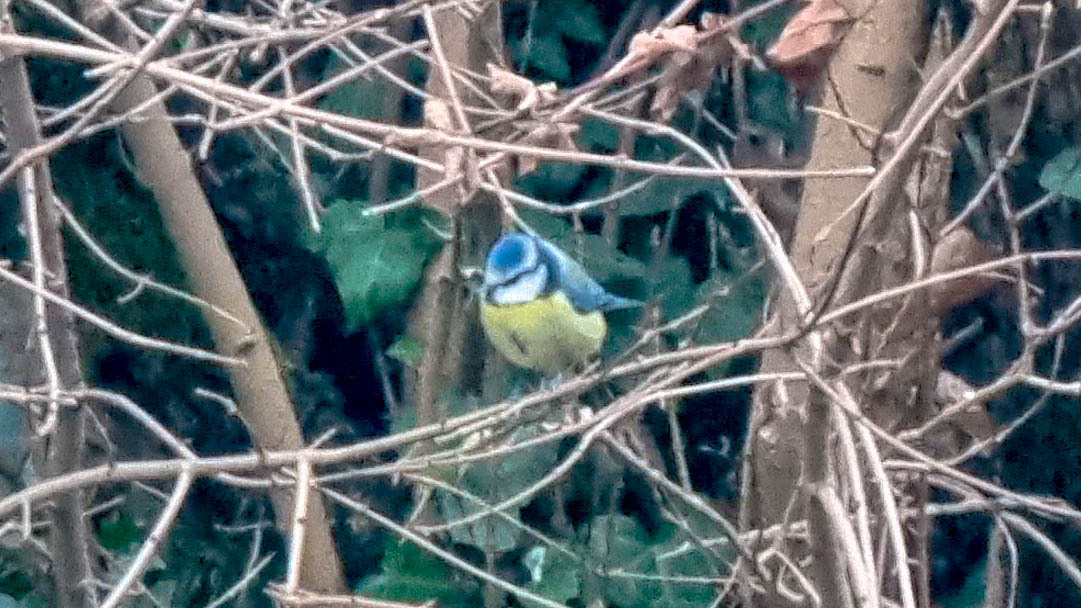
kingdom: Animalia
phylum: Chordata
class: Aves
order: Passeriformes
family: Paridae
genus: Cyanistes
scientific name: Cyanistes caeruleus
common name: Eurasian blue tit
